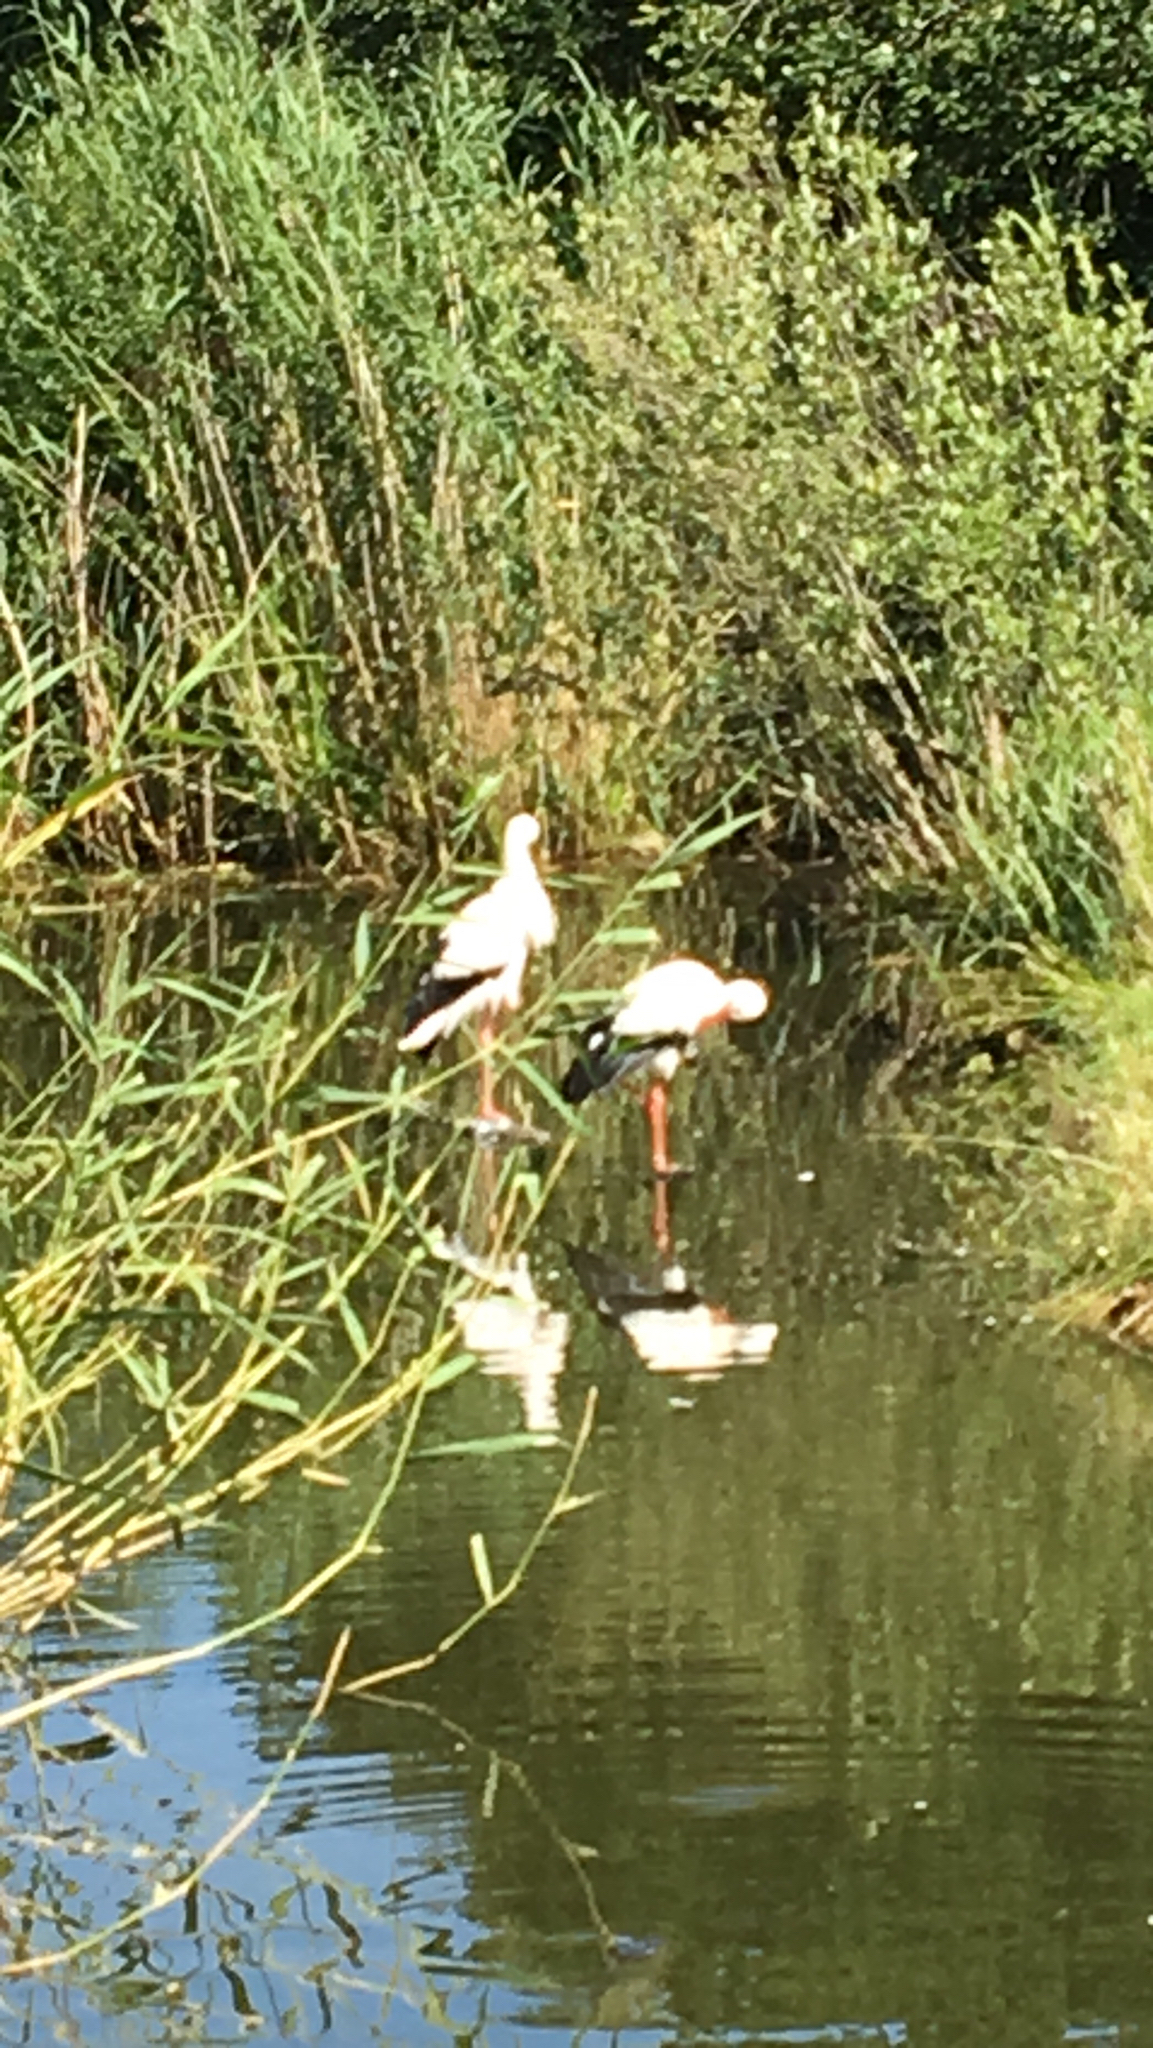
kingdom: Animalia
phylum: Chordata
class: Aves
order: Ciconiiformes
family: Ciconiidae
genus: Ciconia
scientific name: Ciconia ciconia
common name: White stork
